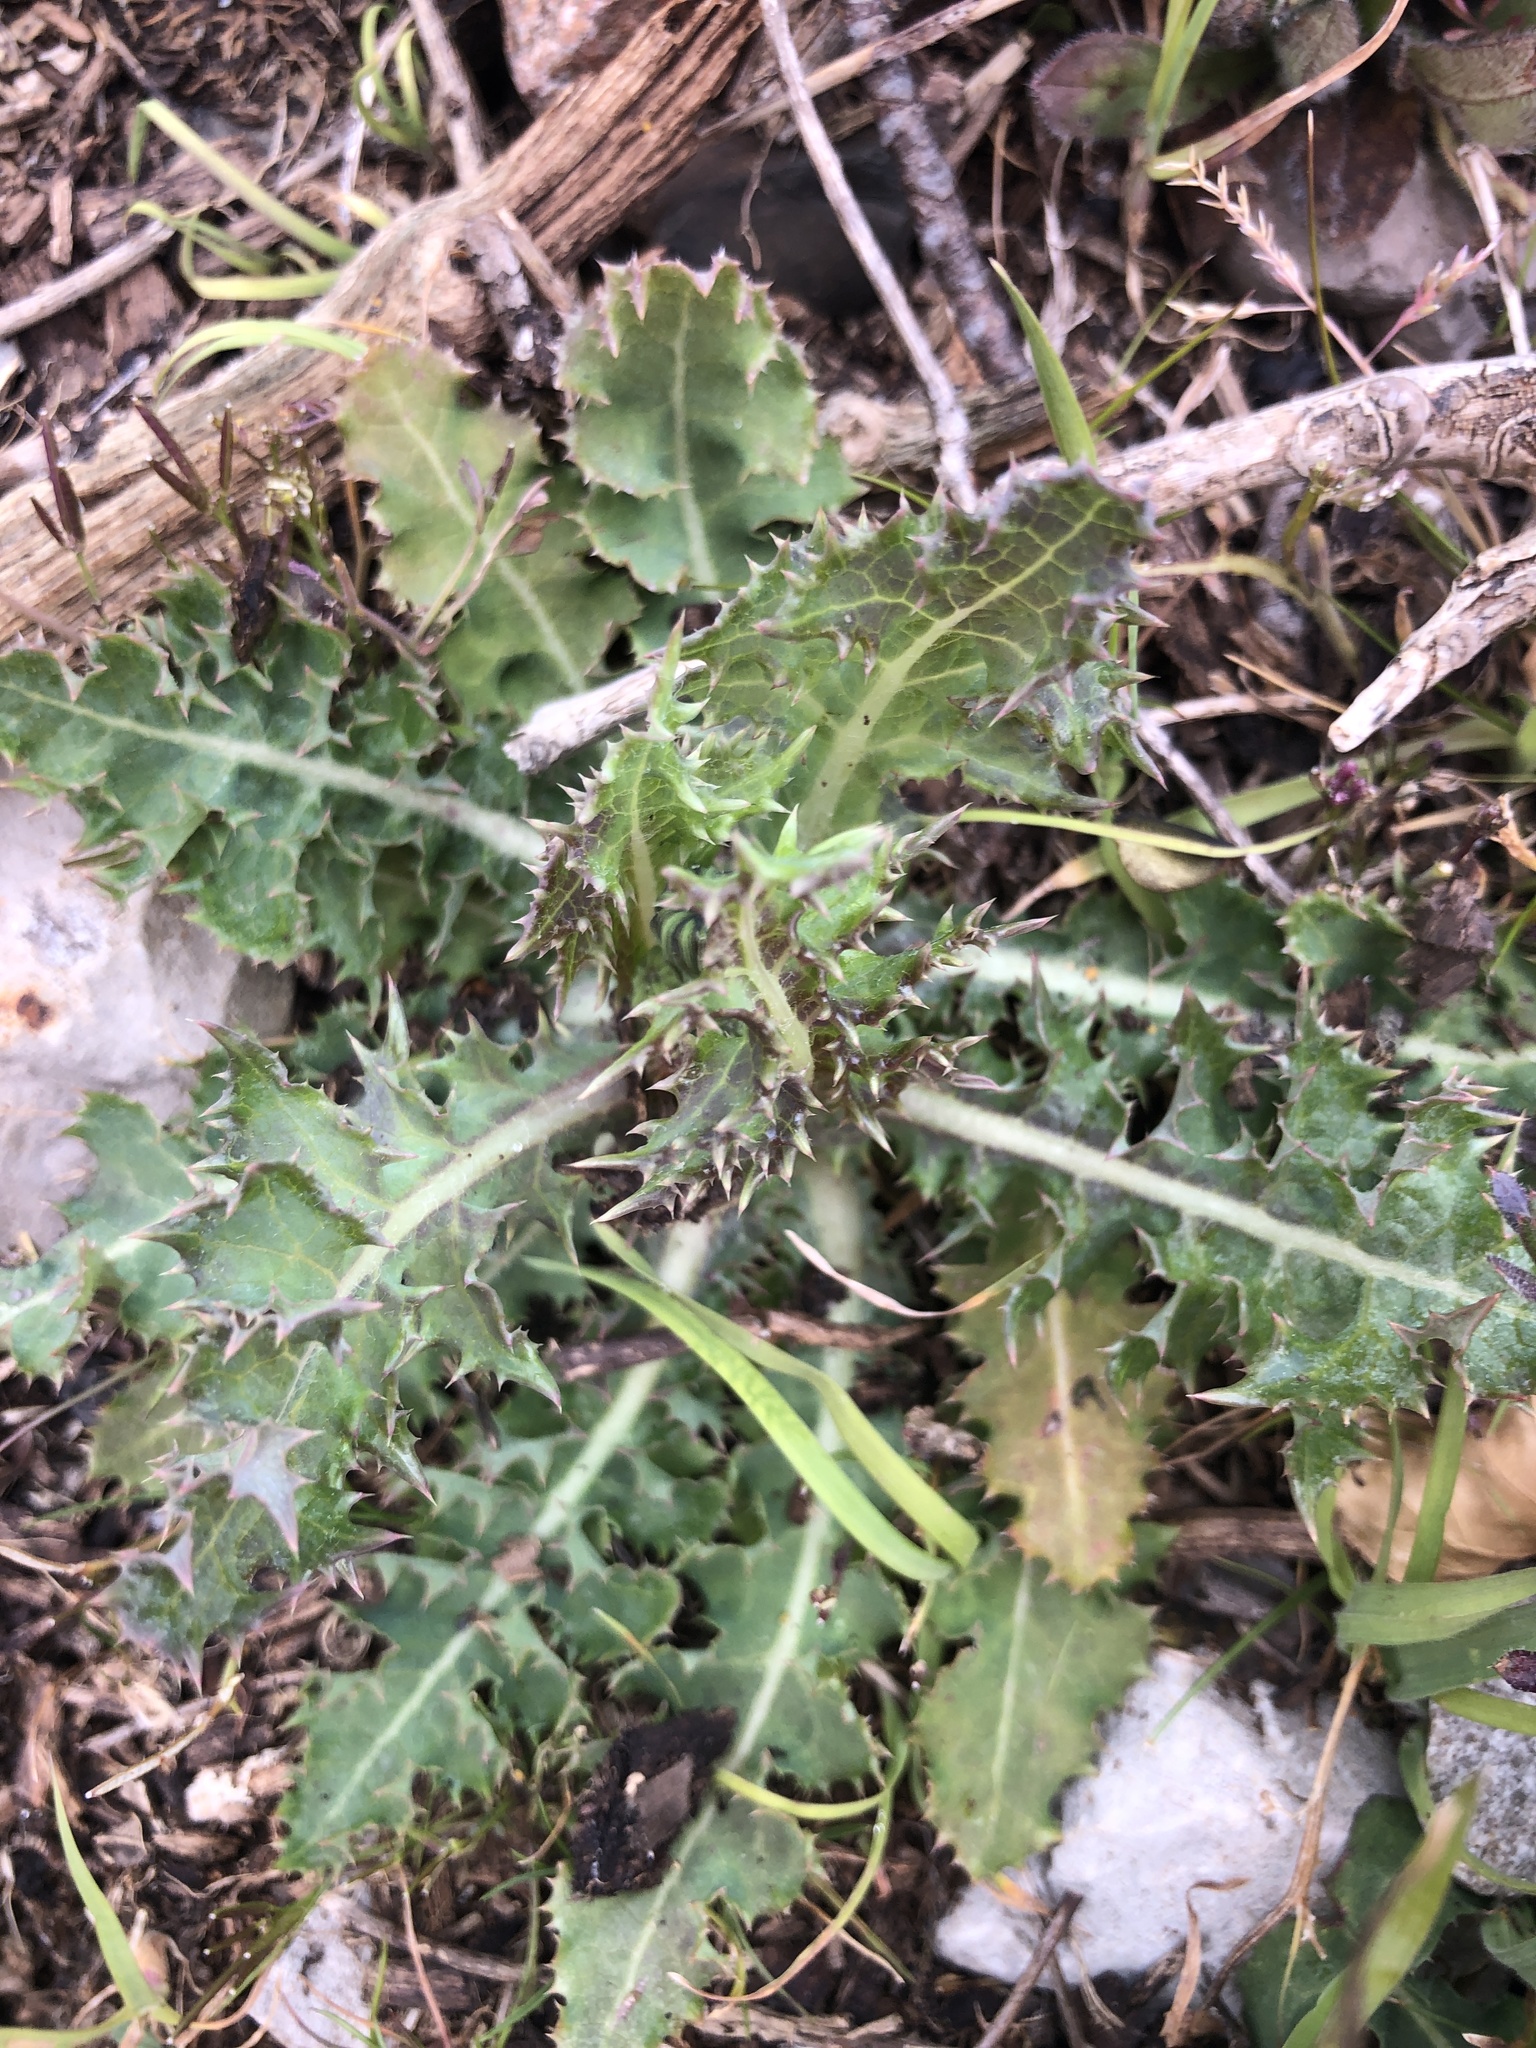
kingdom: Plantae
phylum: Tracheophyta
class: Magnoliopsida
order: Asterales
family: Asteraceae
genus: Sonchus
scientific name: Sonchus asper
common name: Prickly sow-thistle
